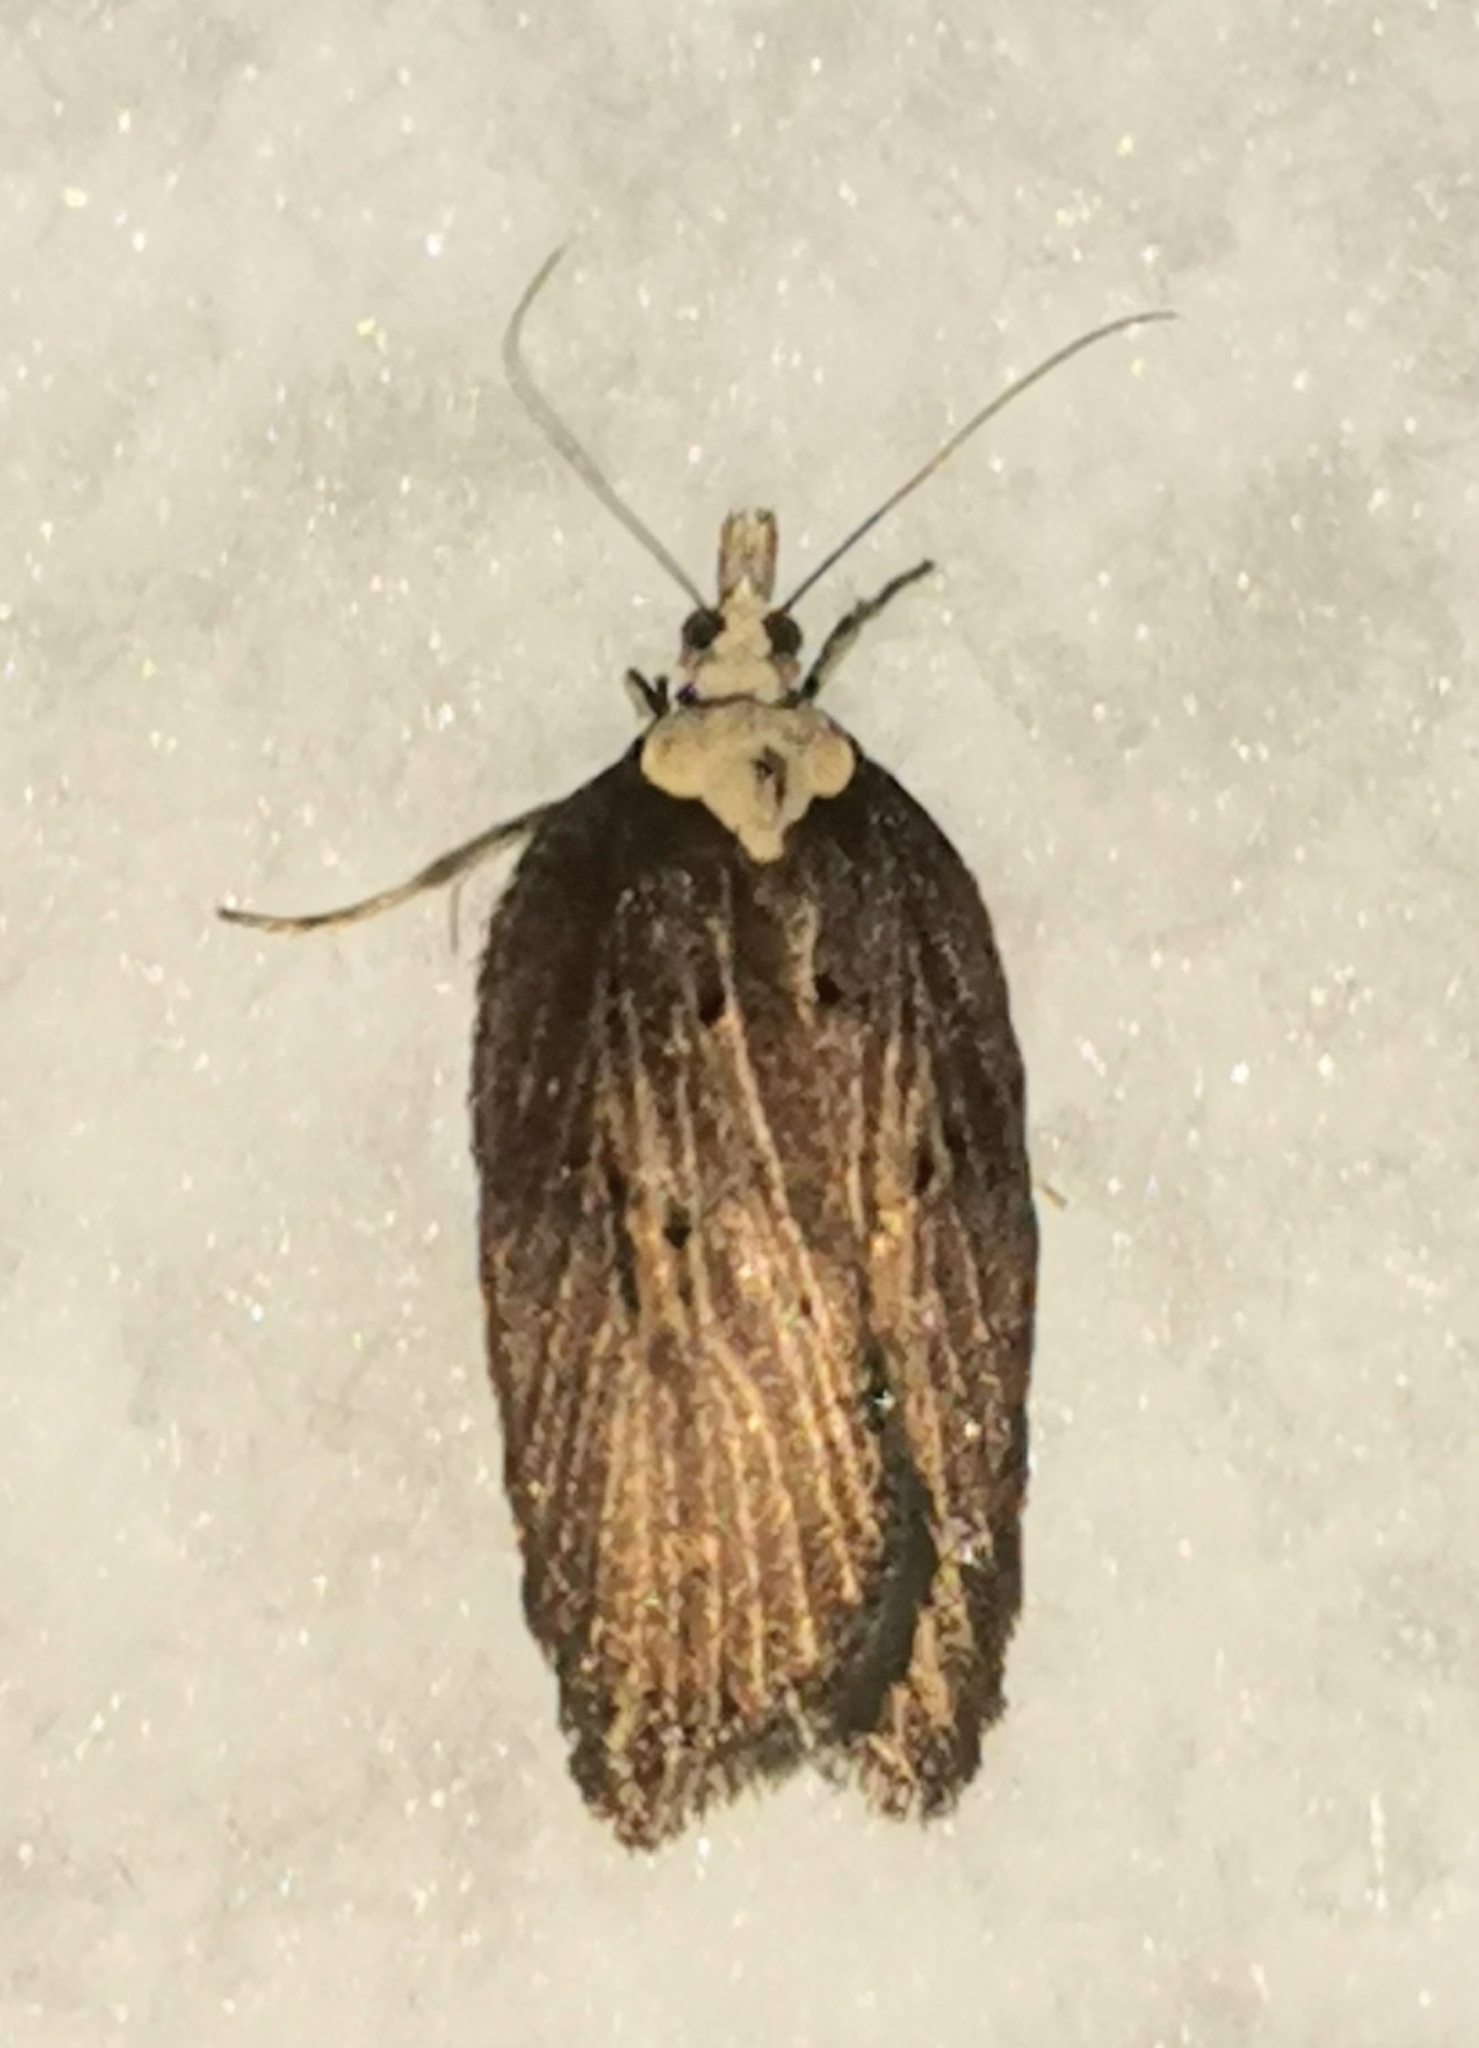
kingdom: Animalia
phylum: Arthropoda
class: Insecta
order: Lepidoptera
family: Tortricidae
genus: Acleris
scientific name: Acleris hastiana
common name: Sallow button
